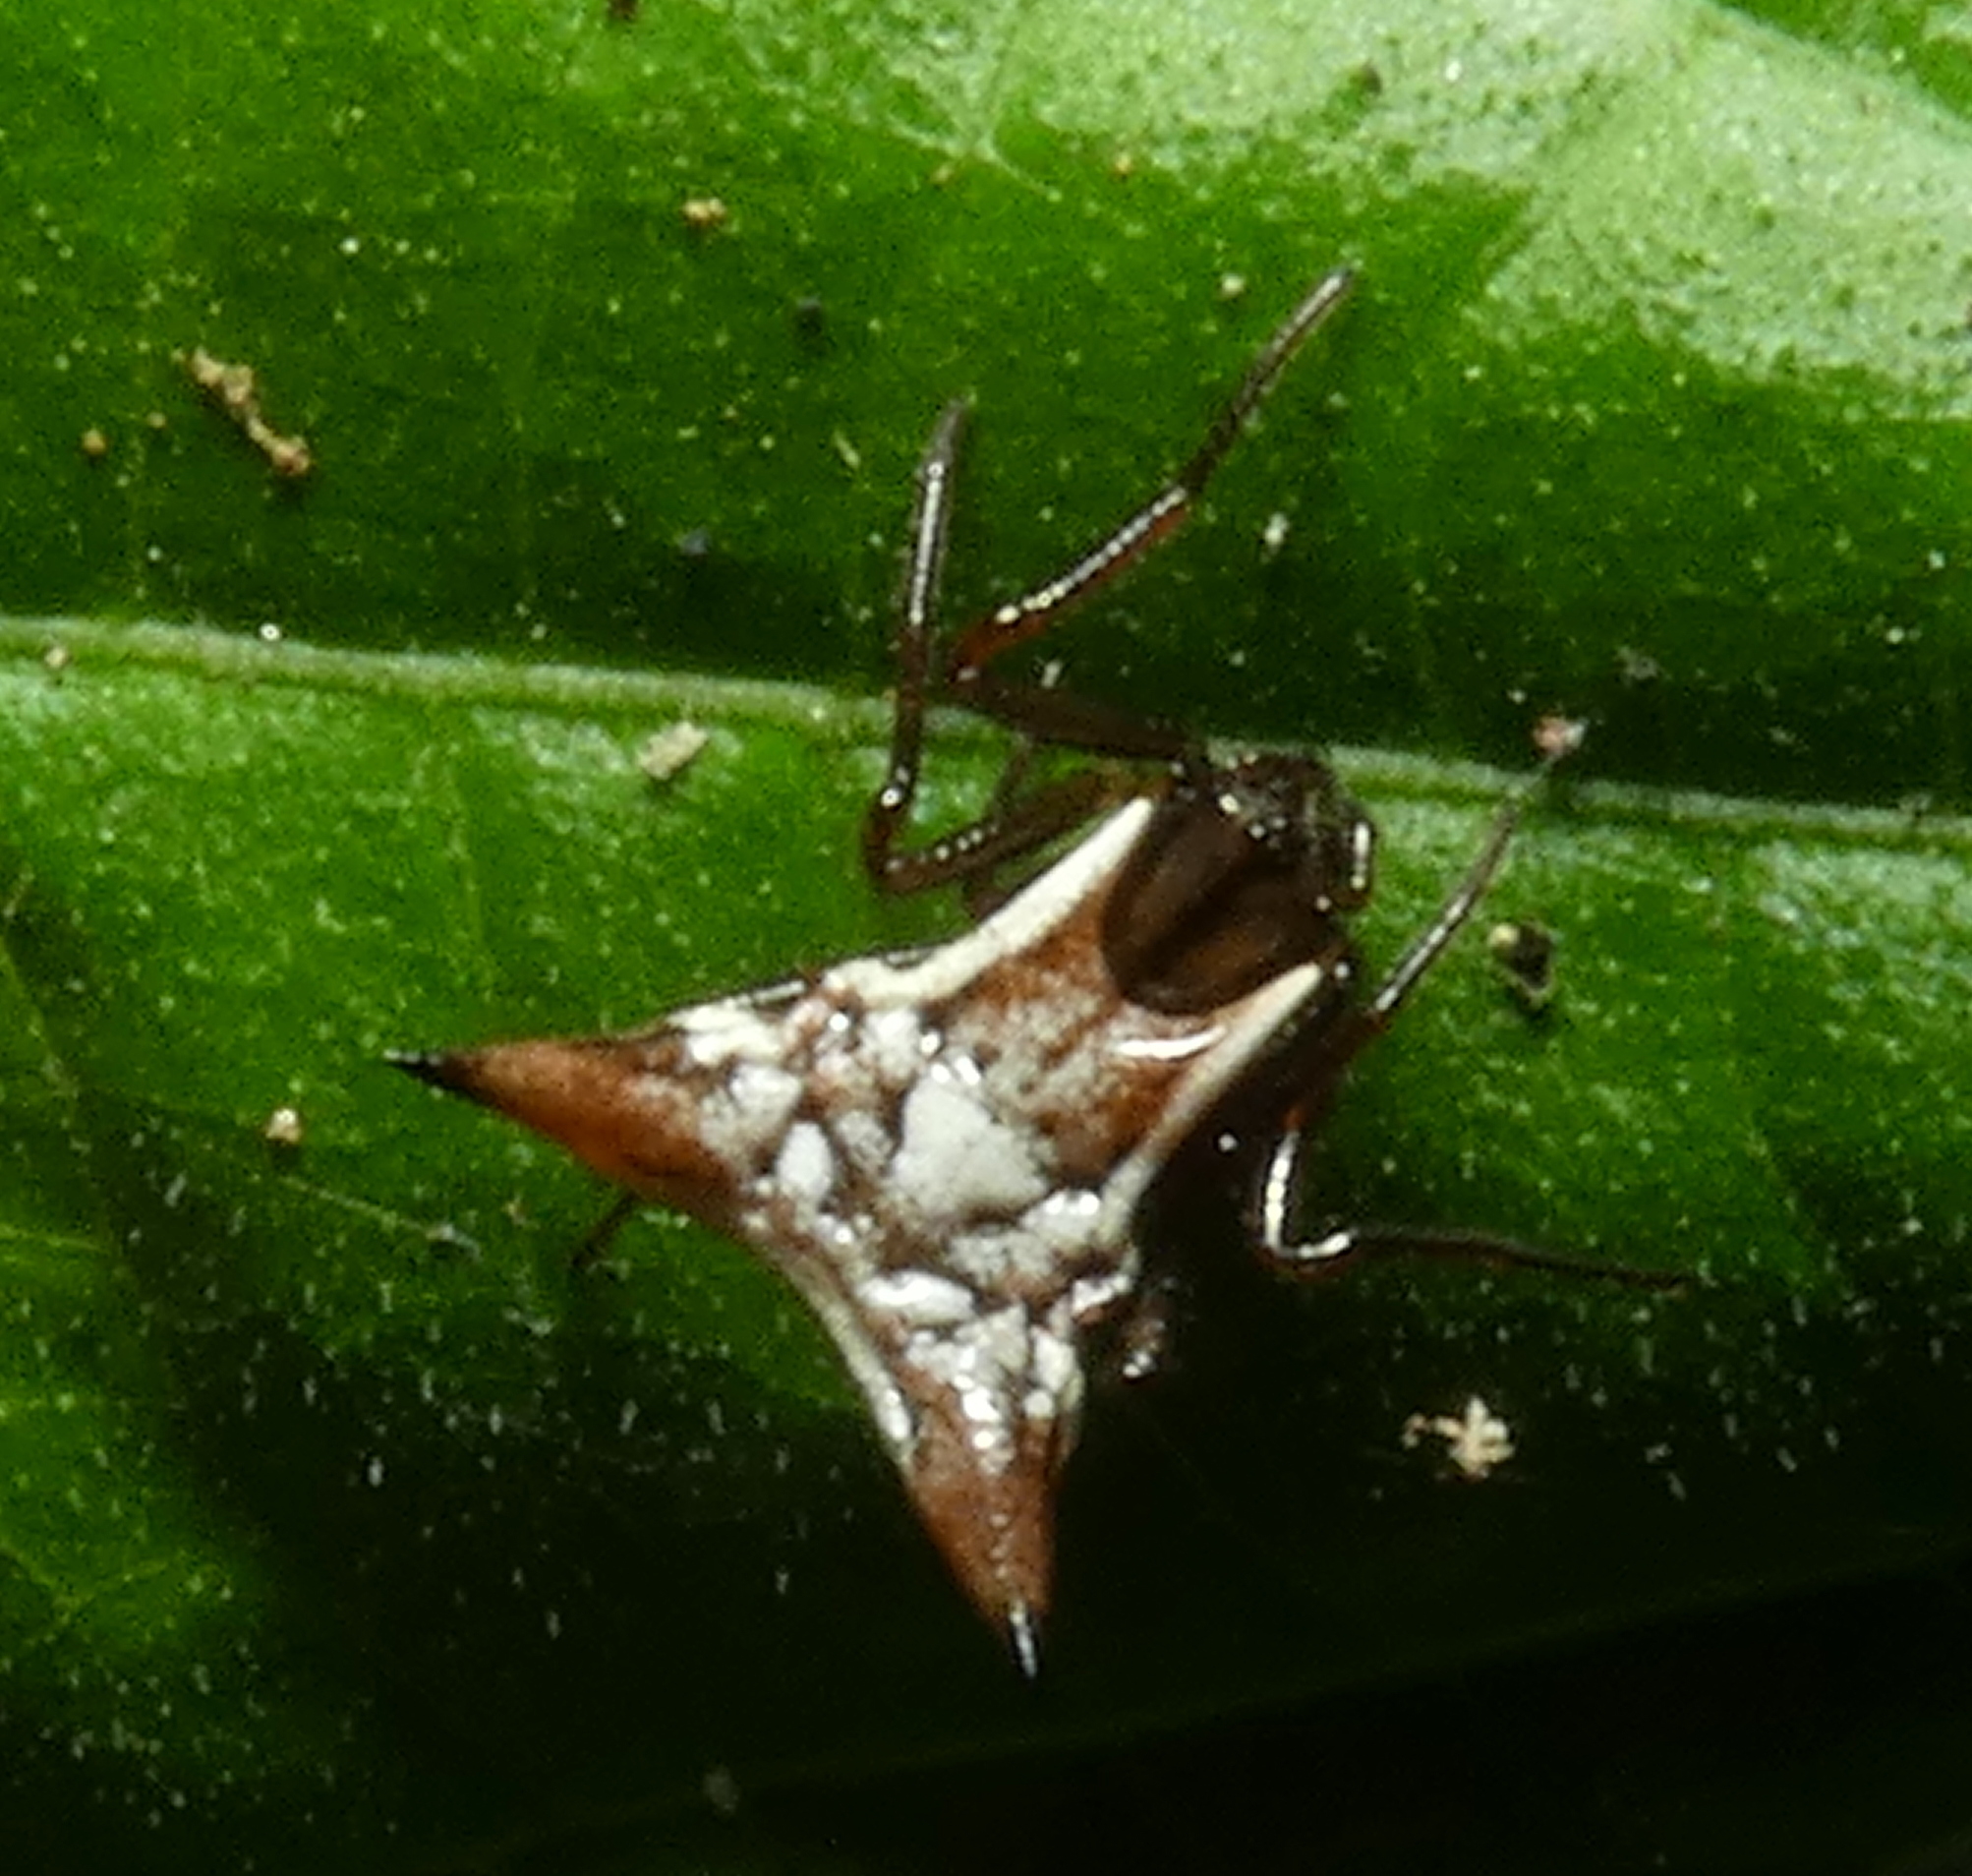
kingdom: Animalia
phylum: Arthropoda
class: Arachnida
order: Araneae
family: Araneidae
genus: Micrathena
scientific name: Micrathena evansi
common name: Orb weavers
